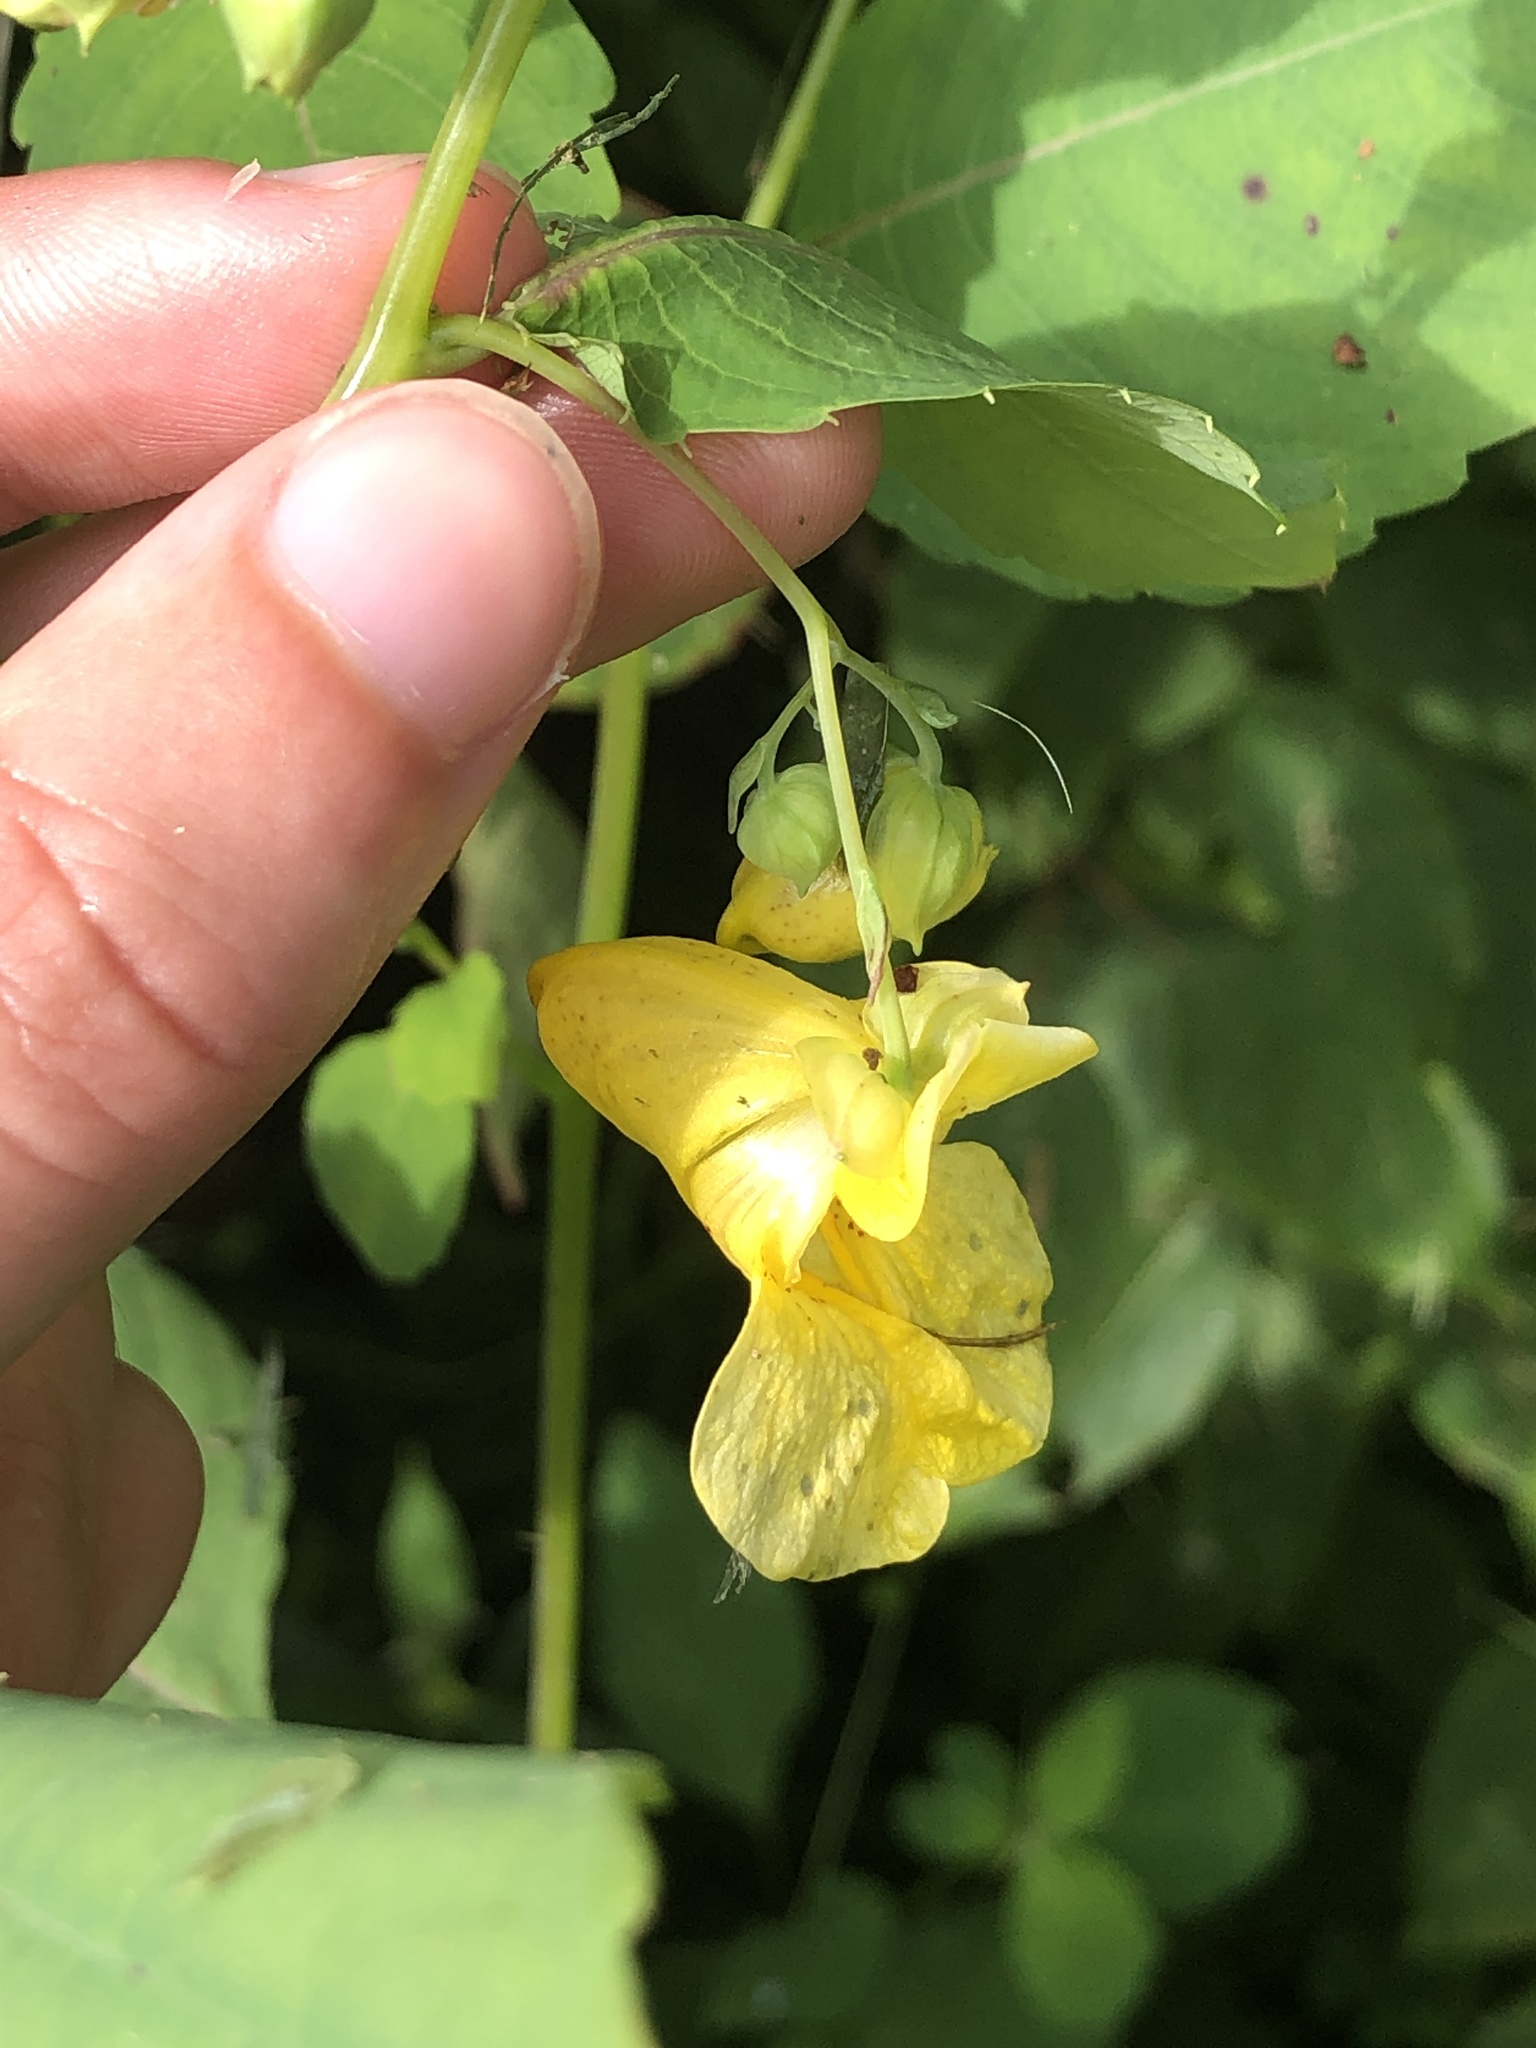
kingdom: Plantae
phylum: Tracheophyta
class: Magnoliopsida
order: Ericales
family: Balsaminaceae
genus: Impatiens
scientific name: Impatiens pallida
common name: Pale snapweed
